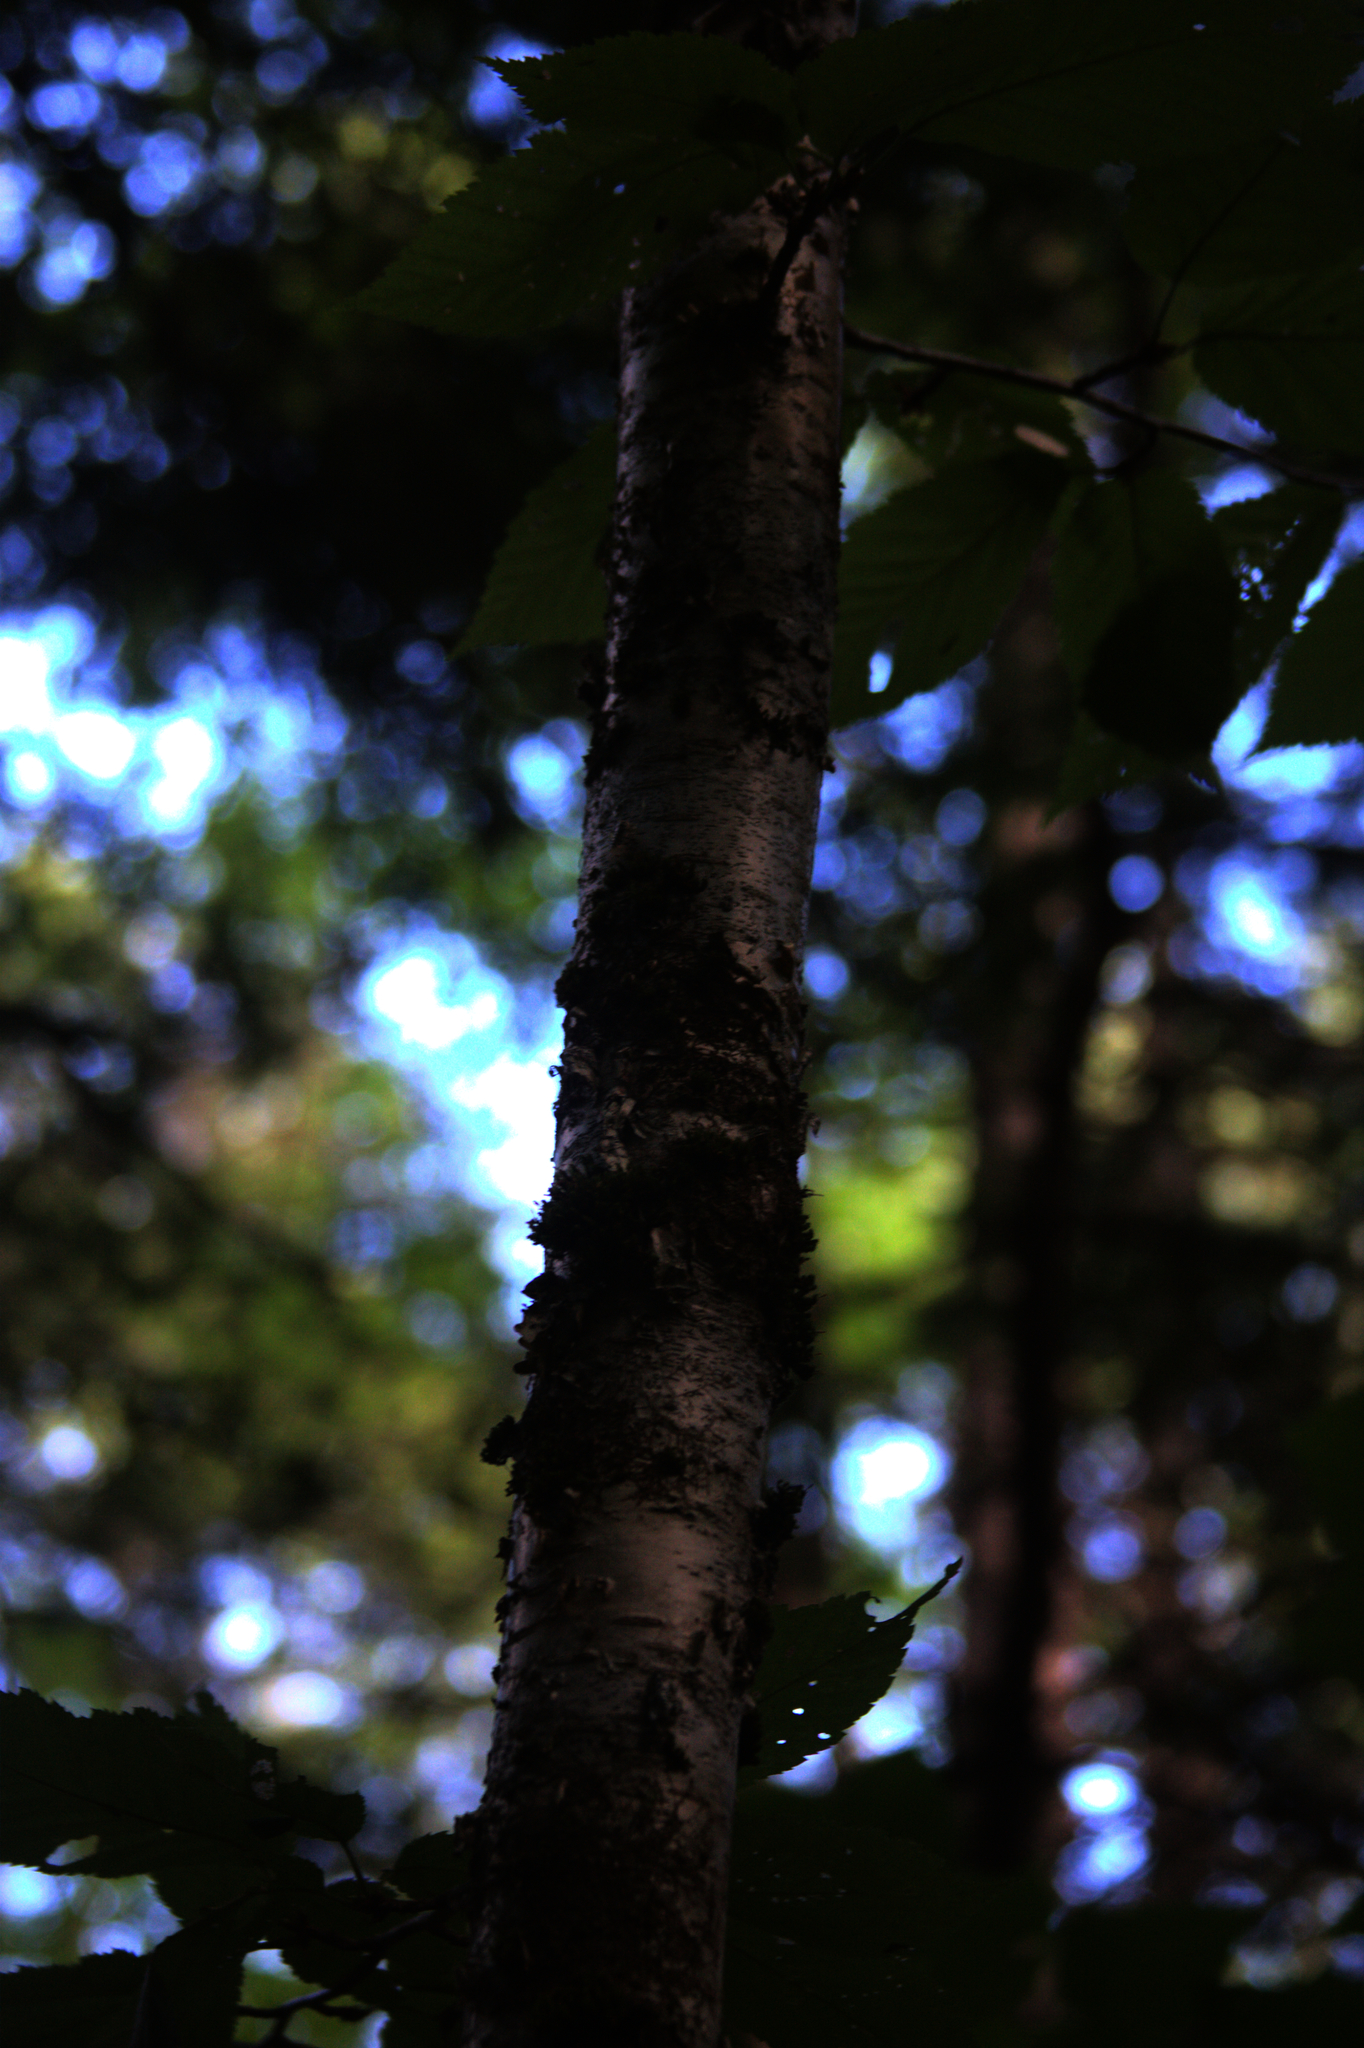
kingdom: Plantae
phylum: Tracheophyta
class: Magnoliopsida
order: Fagales
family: Betulaceae
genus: Betula
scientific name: Betula alleghaniensis
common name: Yellow birch
